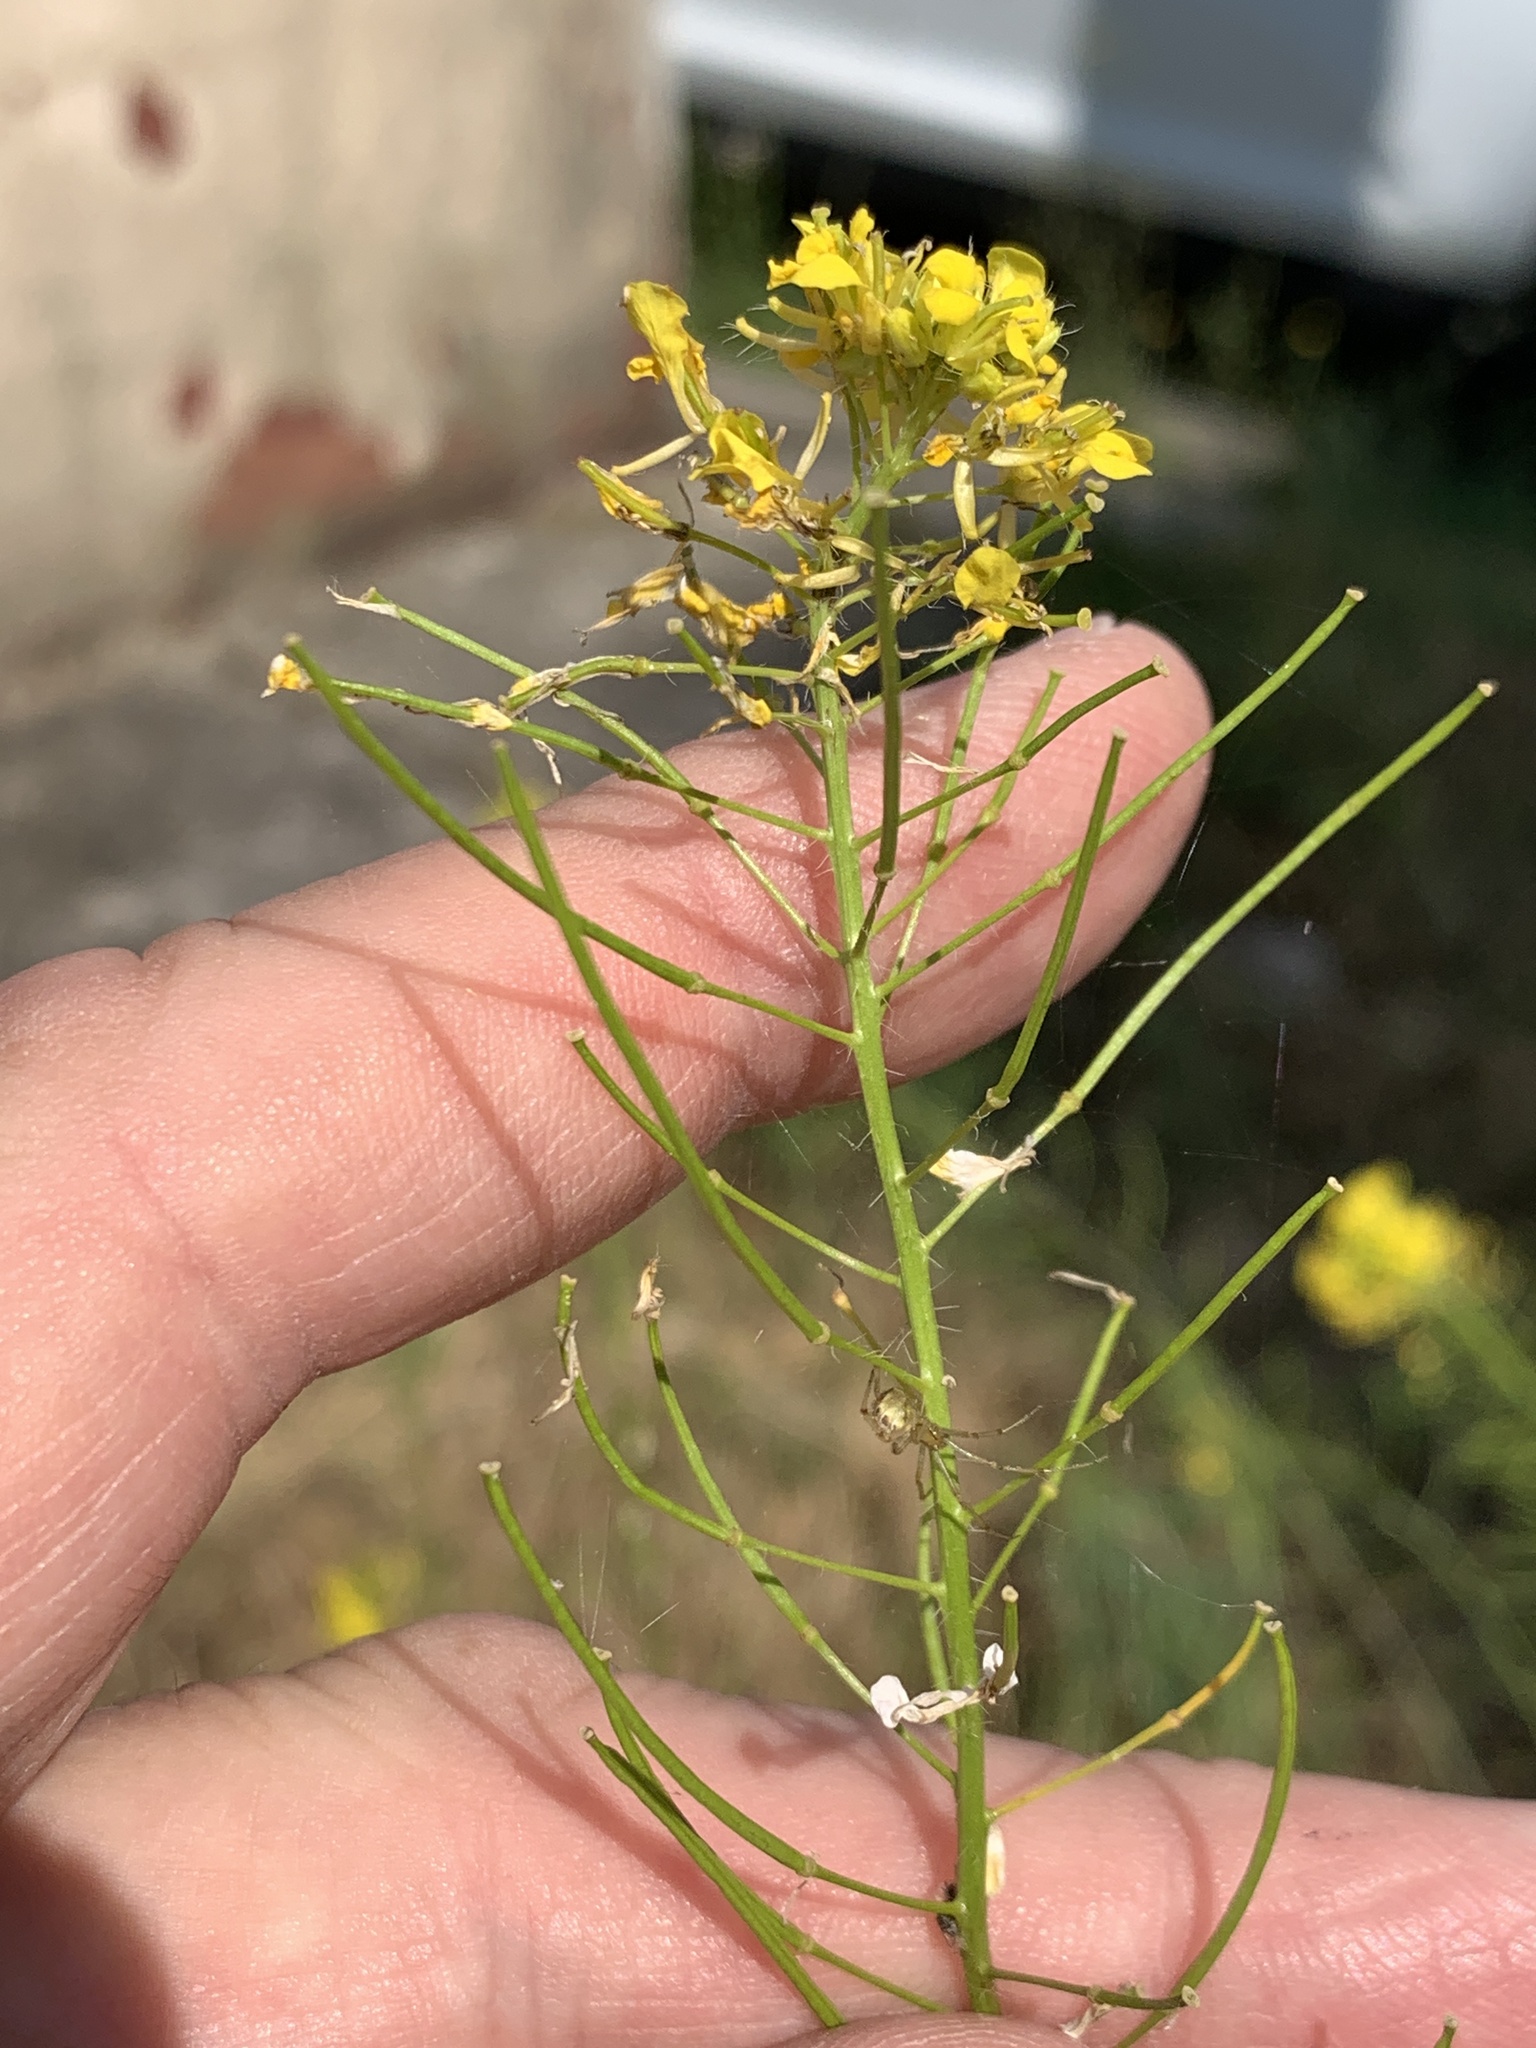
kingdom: Plantae
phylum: Tracheophyta
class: Magnoliopsida
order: Brassicales
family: Brassicaceae
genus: Sisymbrium
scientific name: Sisymbrium loeselii
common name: False london-rocket
